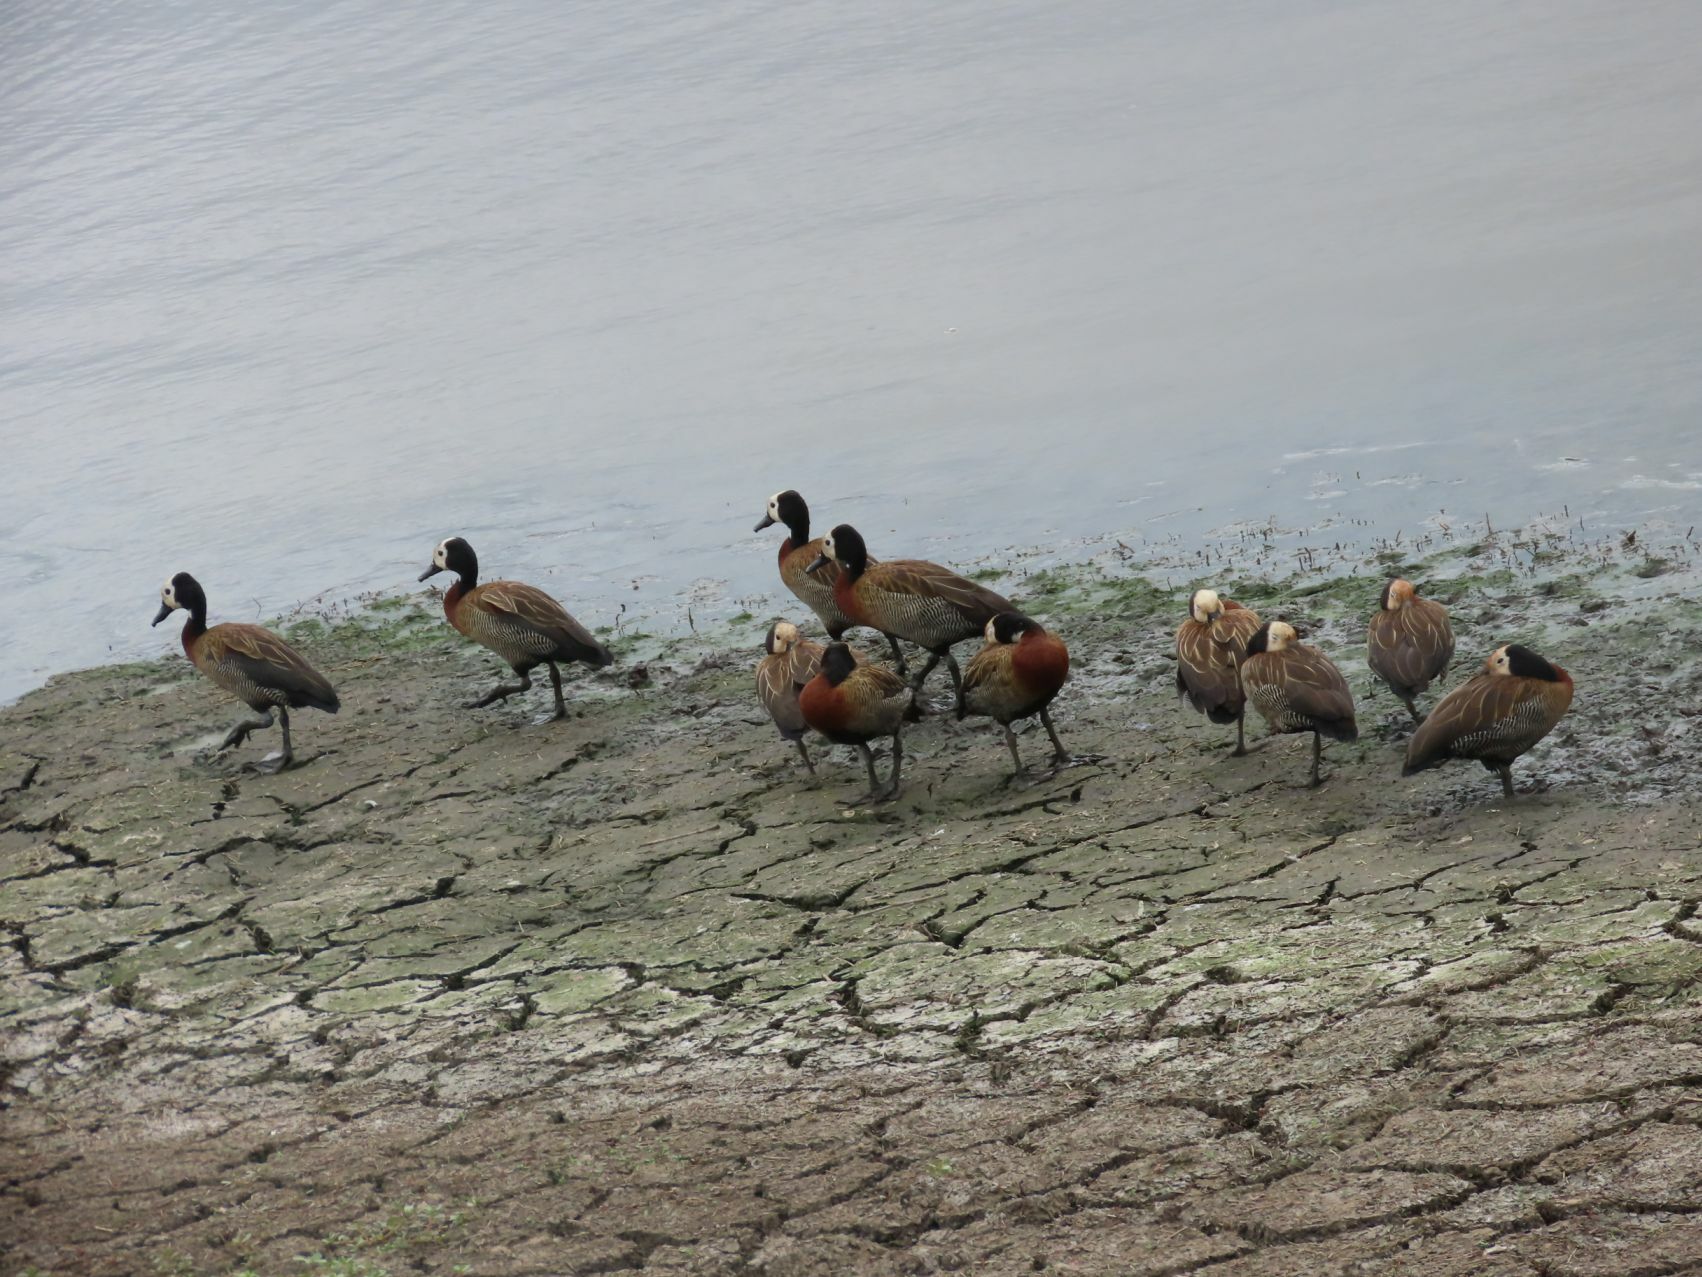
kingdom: Animalia
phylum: Chordata
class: Aves
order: Anseriformes
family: Anatidae
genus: Dendrocygna
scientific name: Dendrocygna viduata
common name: White-faced whistling duck
